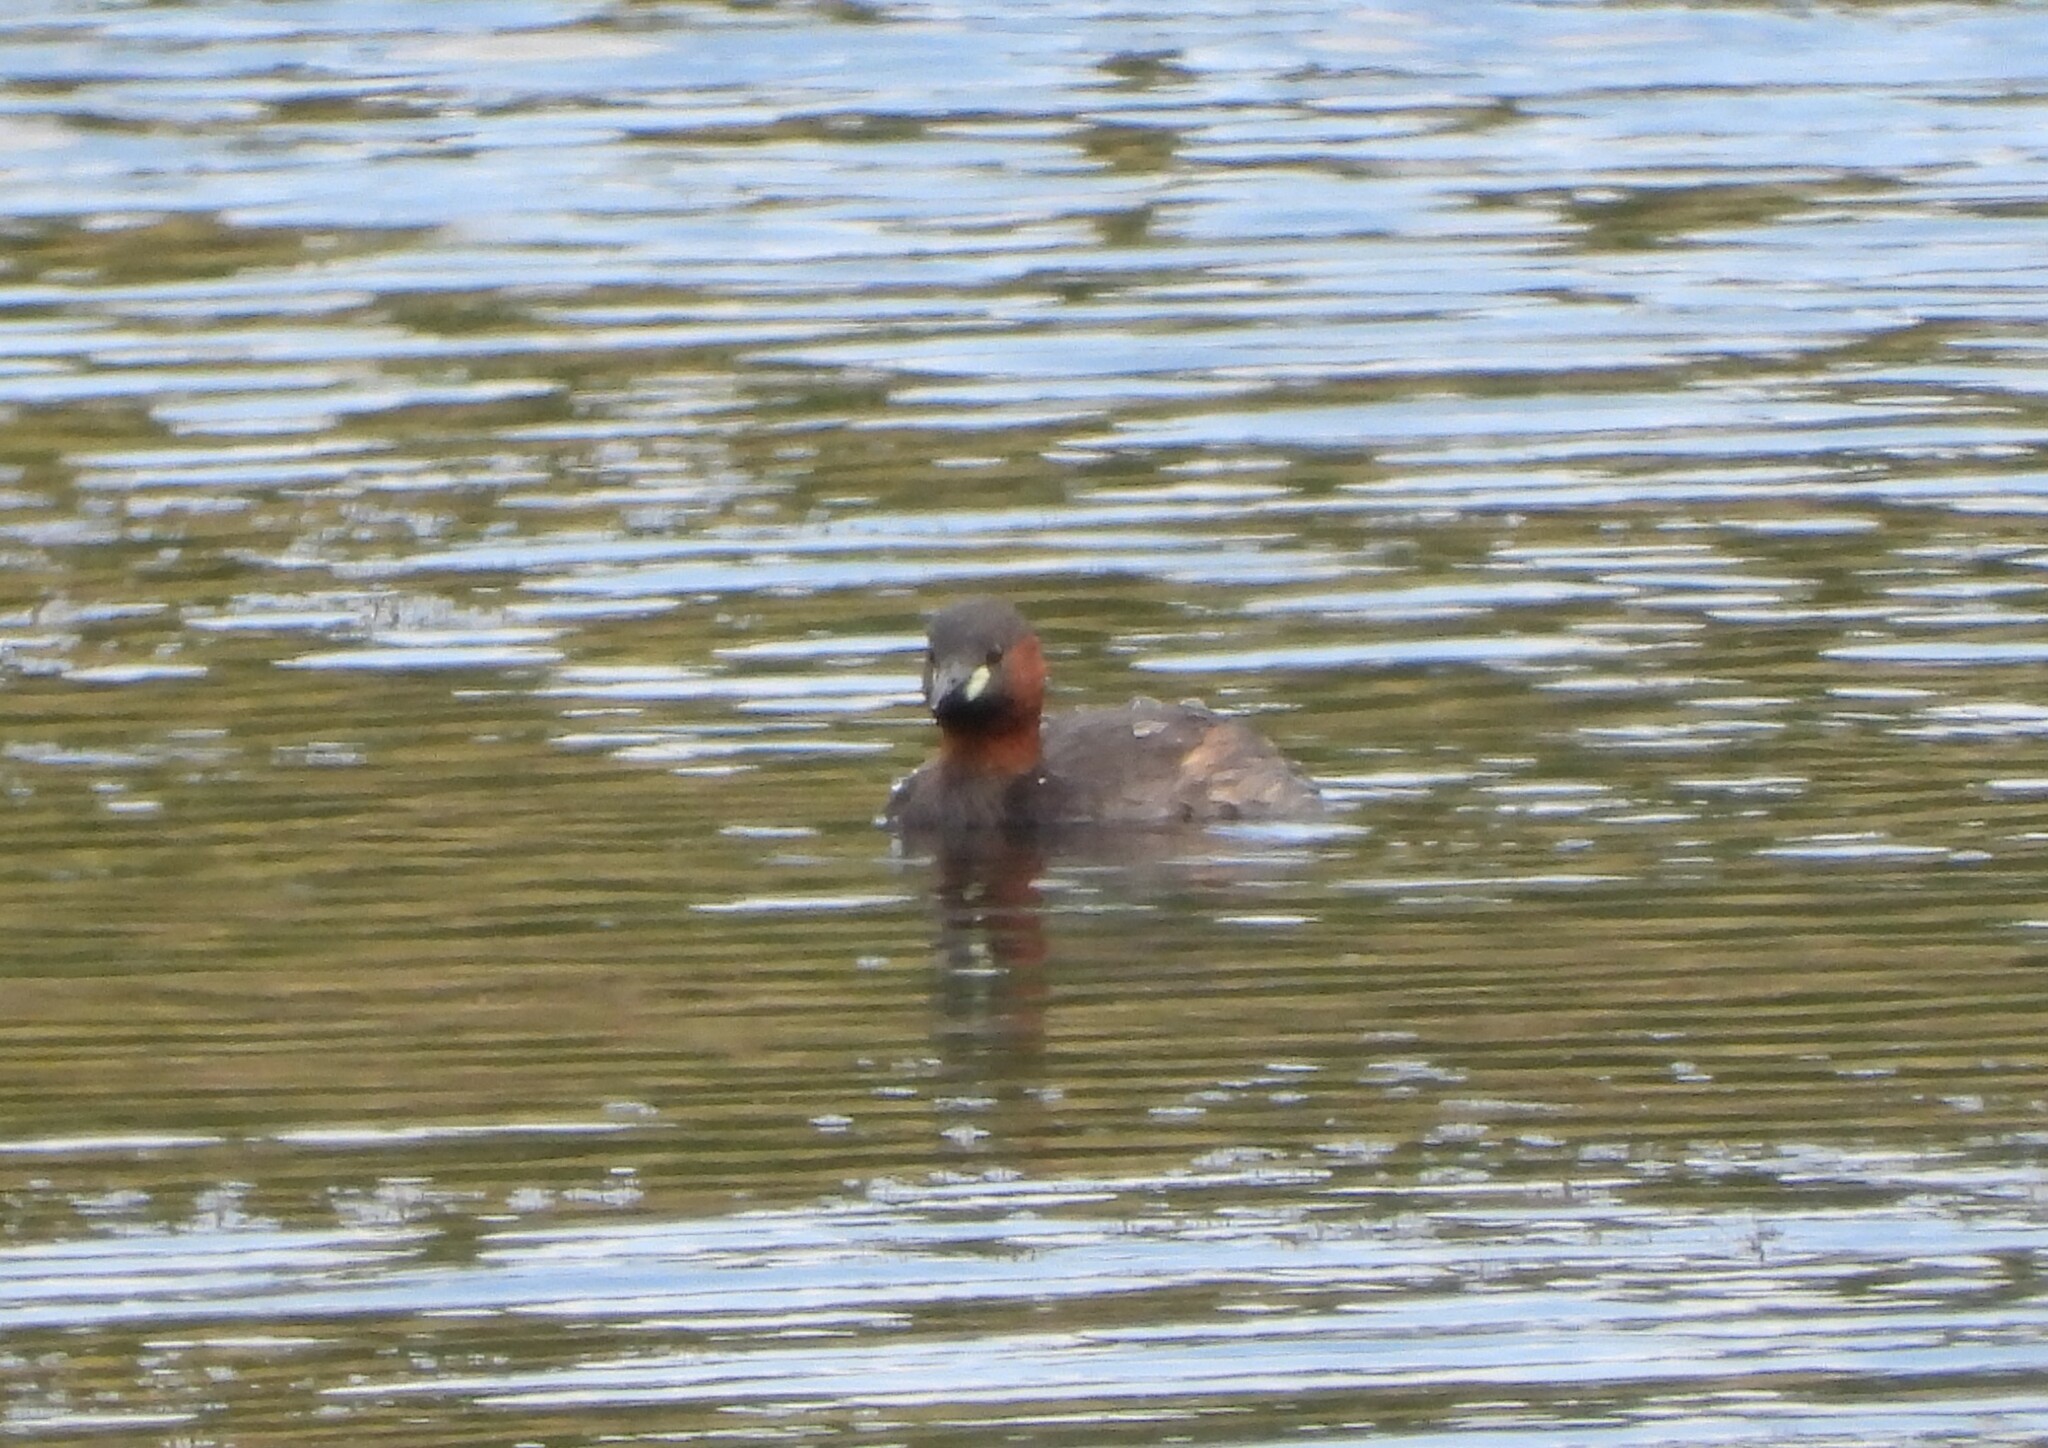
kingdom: Animalia
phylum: Chordata
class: Aves
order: Podicipediformes
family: Podicipedidae
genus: Tachybaptus
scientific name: Tachybaptus ruficollis
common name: Little grebe
